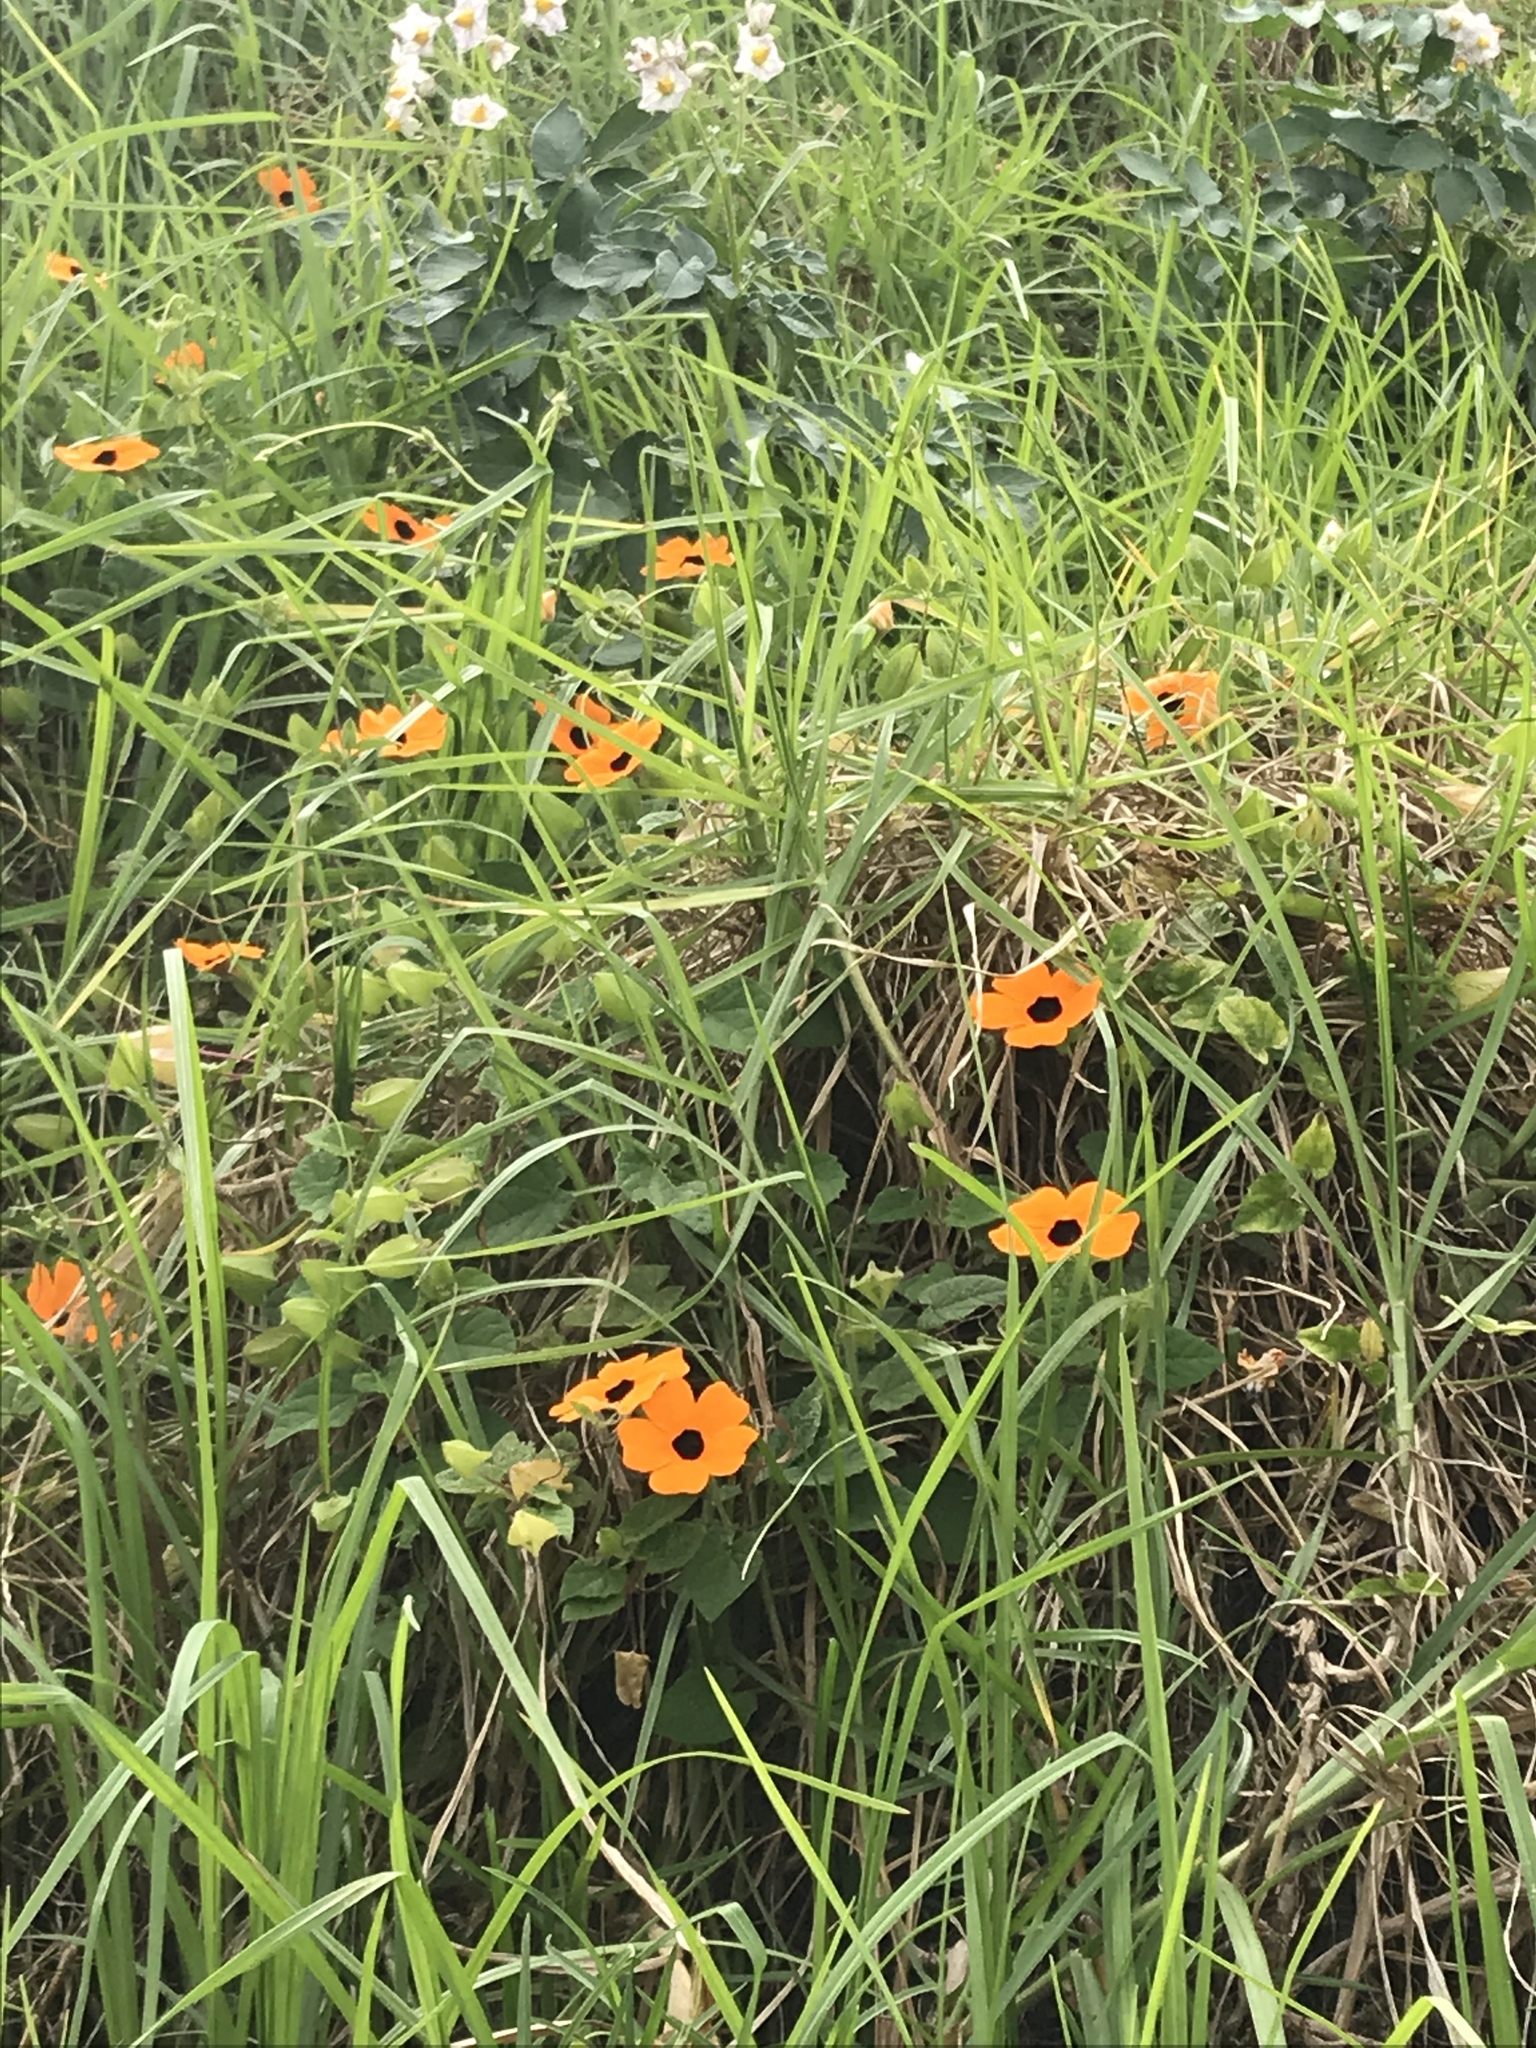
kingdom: Plantae
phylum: Tracheophyta
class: Magnoliopsida
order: Lamiales
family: Acanthaceae
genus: Thunbergia
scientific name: Thunbergia alata
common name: Blackeyed susan vine
